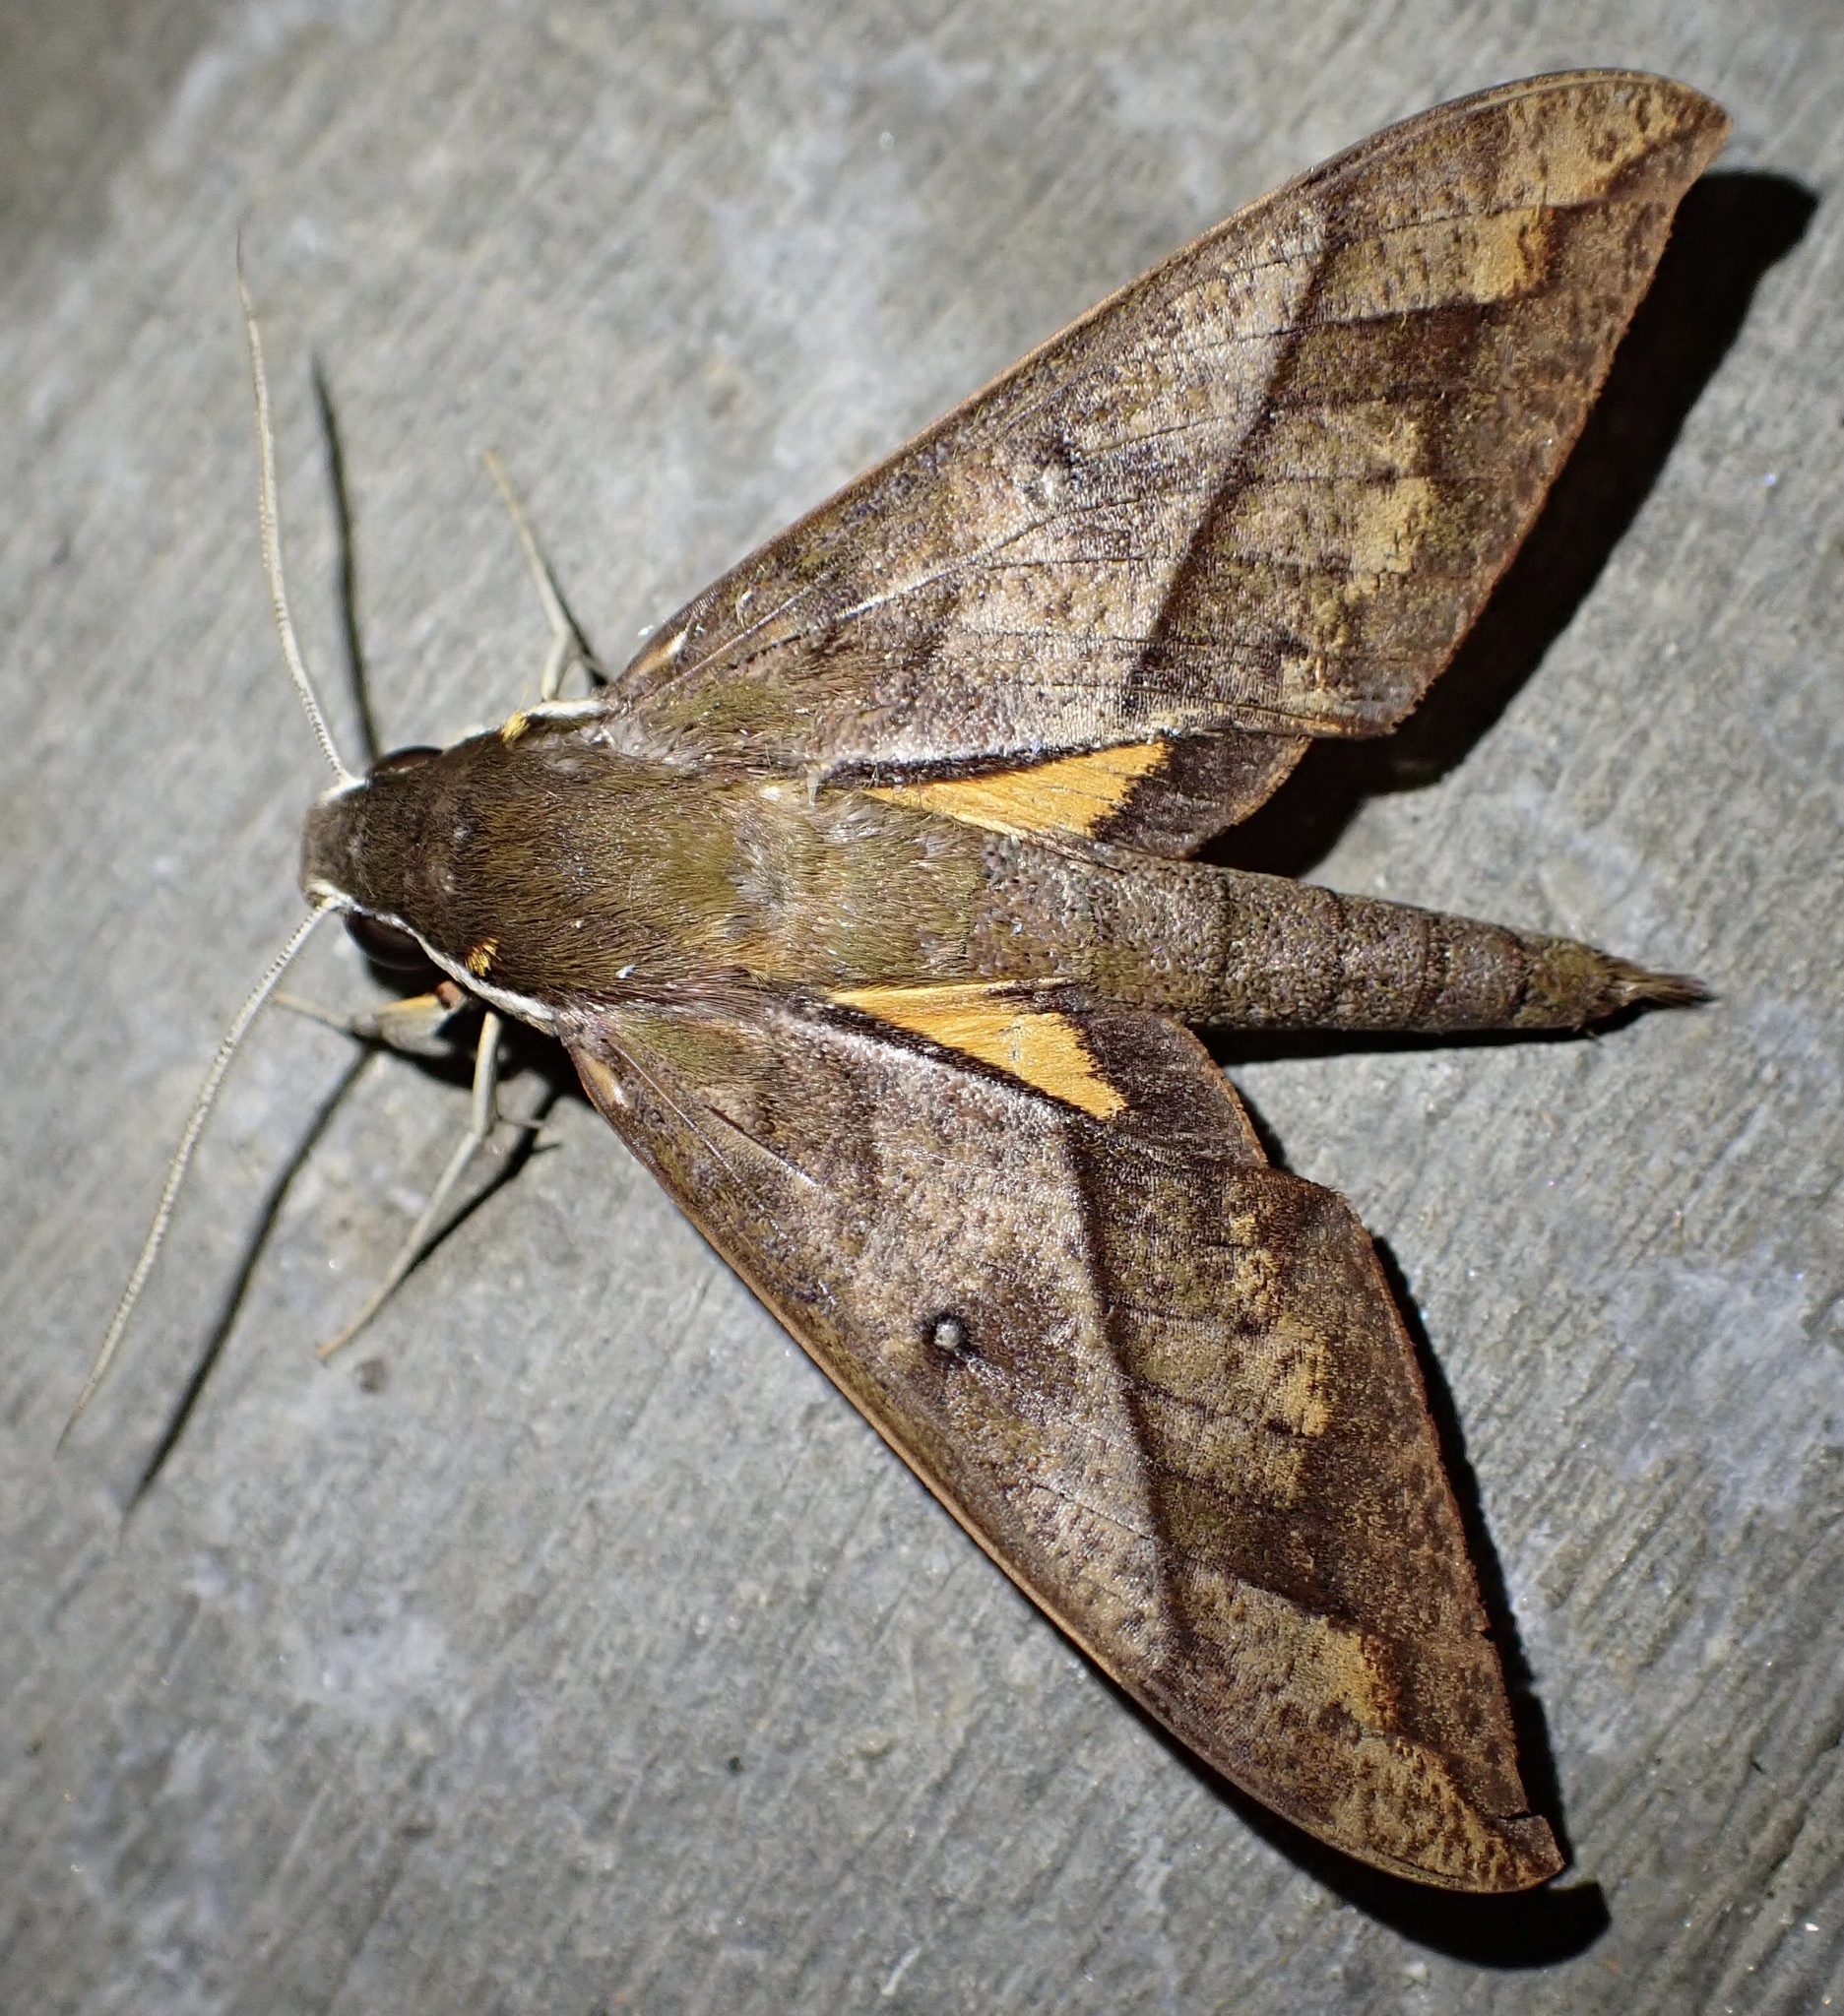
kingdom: Animalia
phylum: Arthropoda
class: Insecta
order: Lepidoptera
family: Sphingidae
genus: Gnathothlibus
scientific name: Gnathothlibus heliodes
